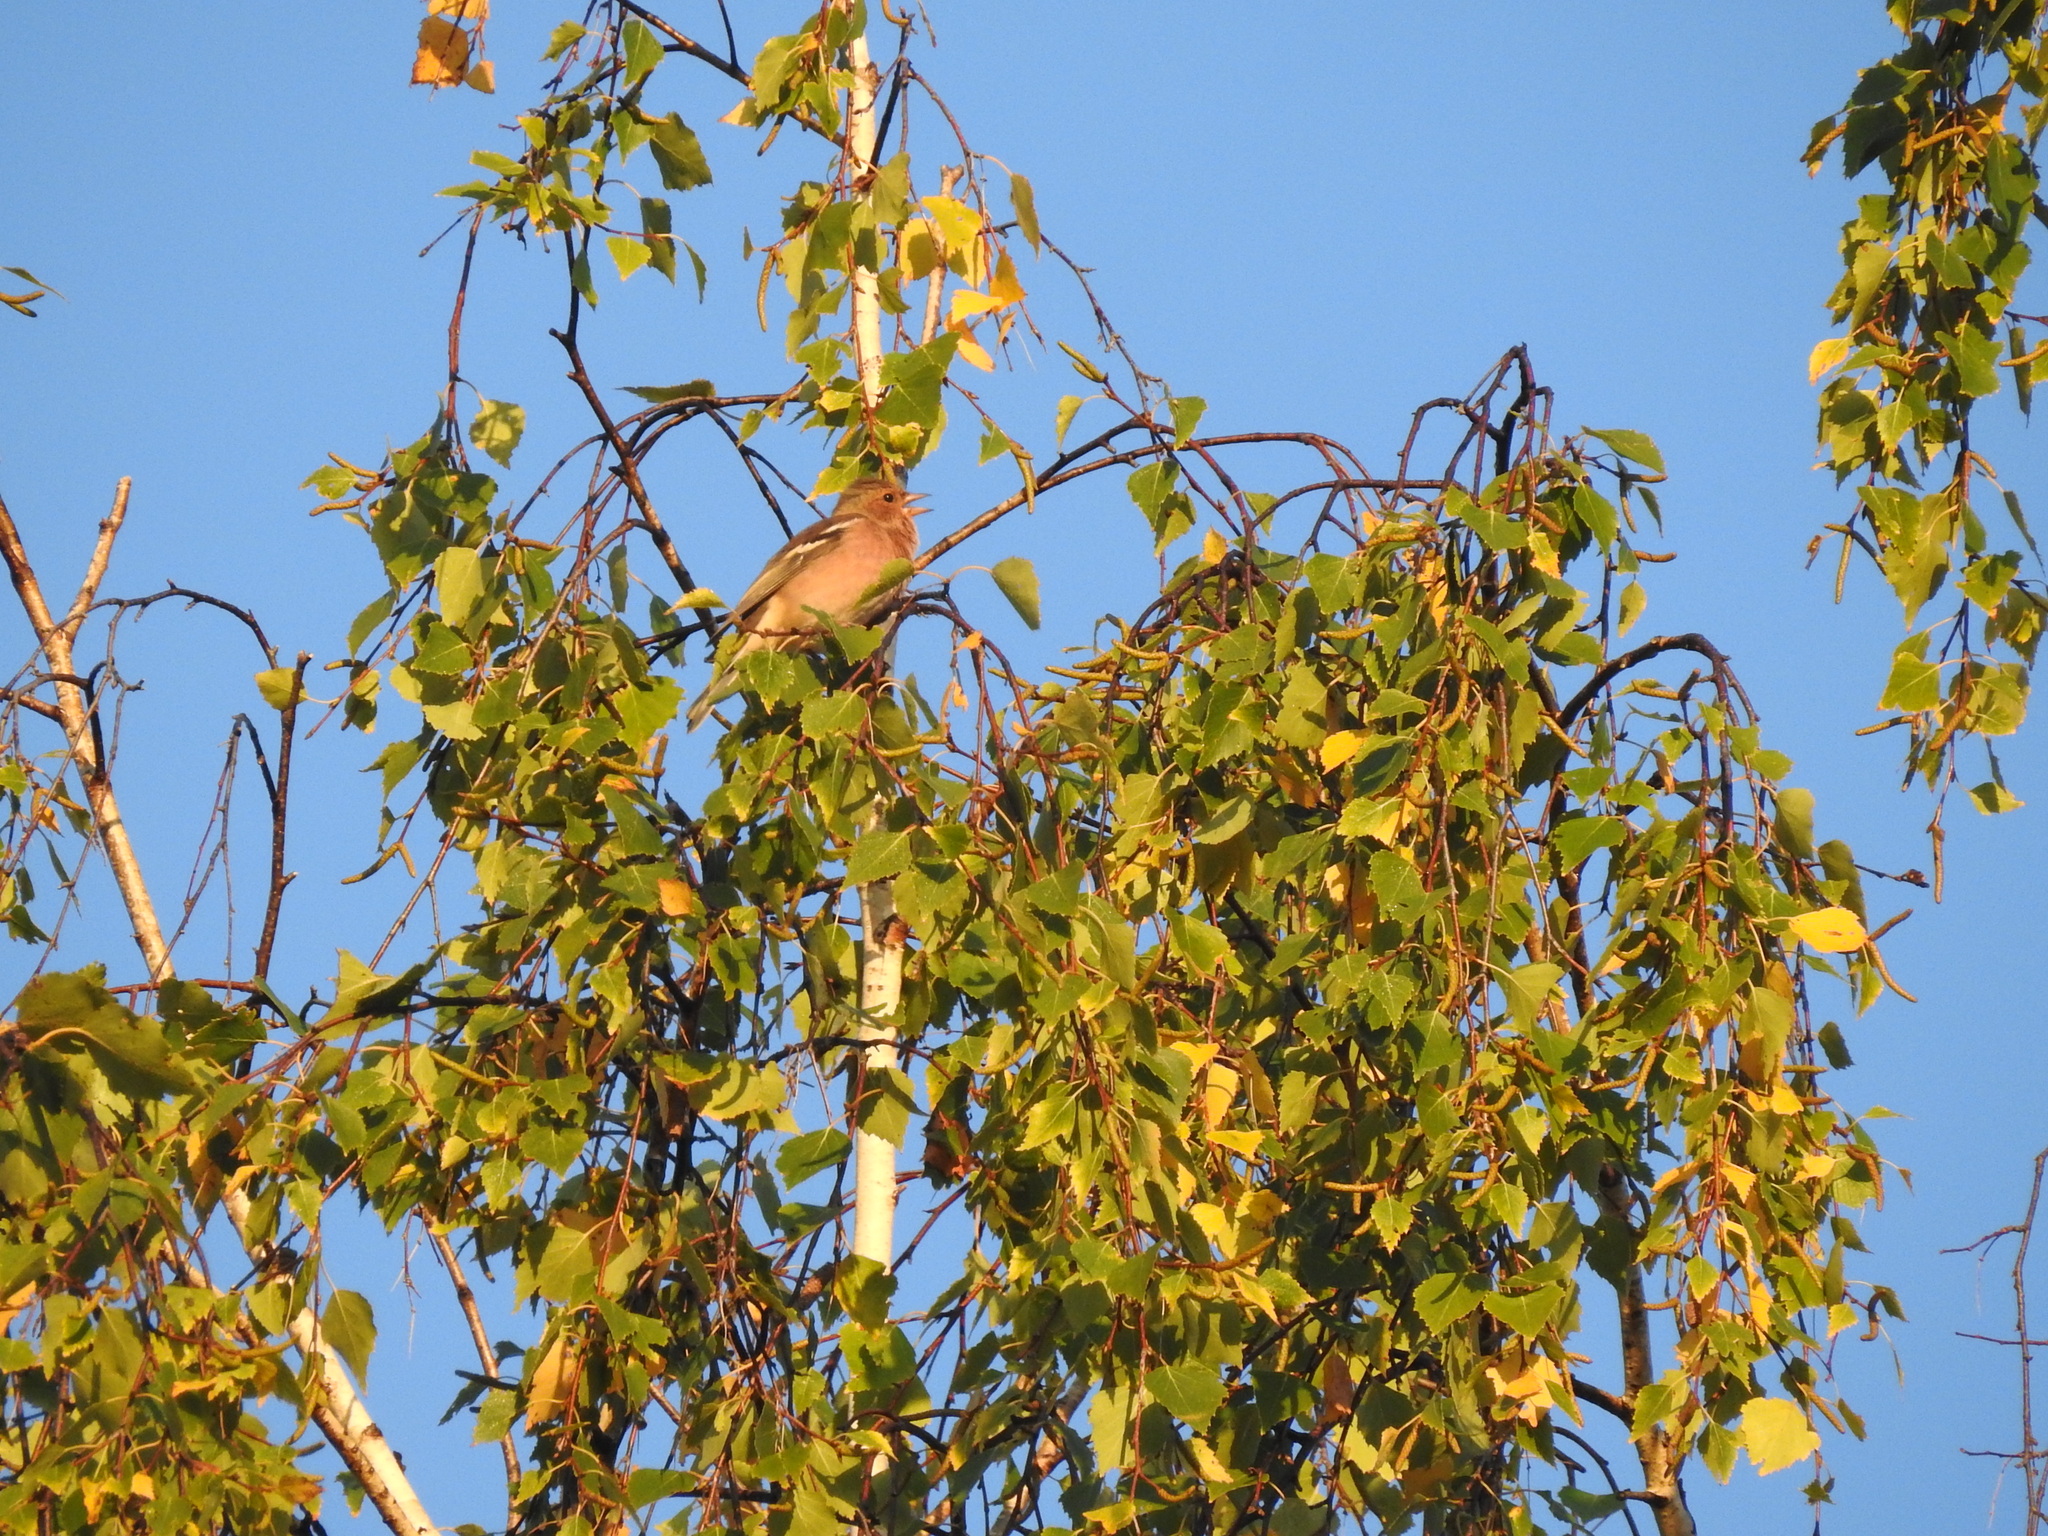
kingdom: Animalia
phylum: Chordata
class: Aves
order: Passeriformes
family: Fringillidae
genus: Fringilla
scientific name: Fringilla coelebs
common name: Common chaffinch
